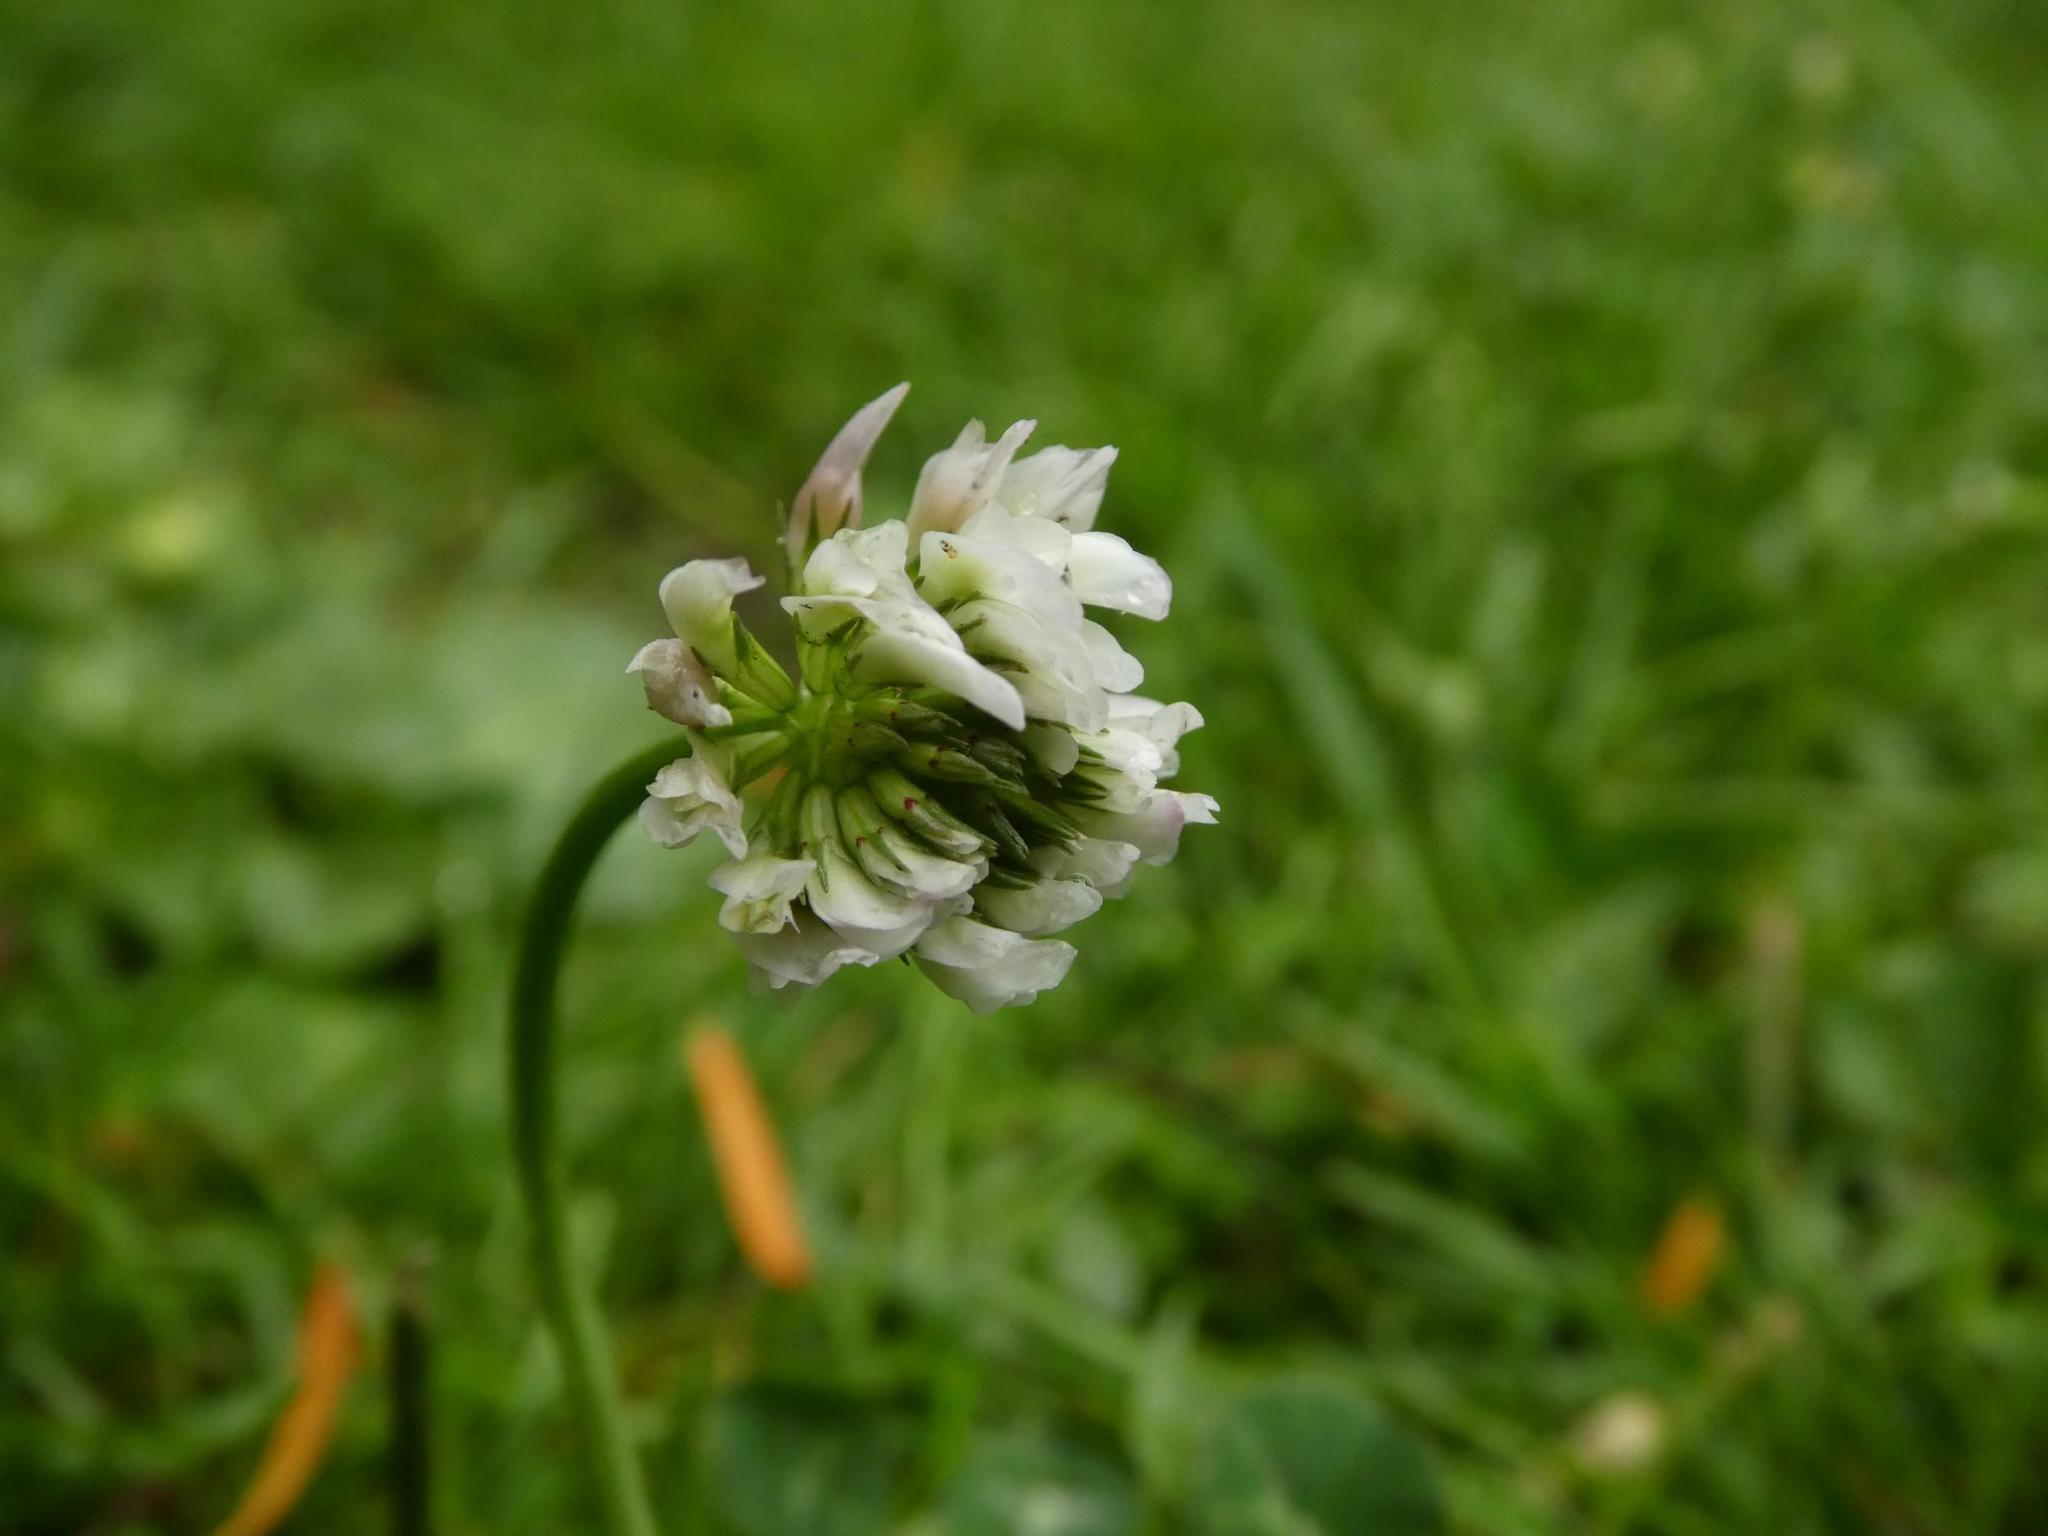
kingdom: Plantae
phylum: Tracheophyta
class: Magnoliopsida
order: Fabales
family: Fabaceae
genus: Trifolium
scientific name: Trifolium repens
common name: White clover
